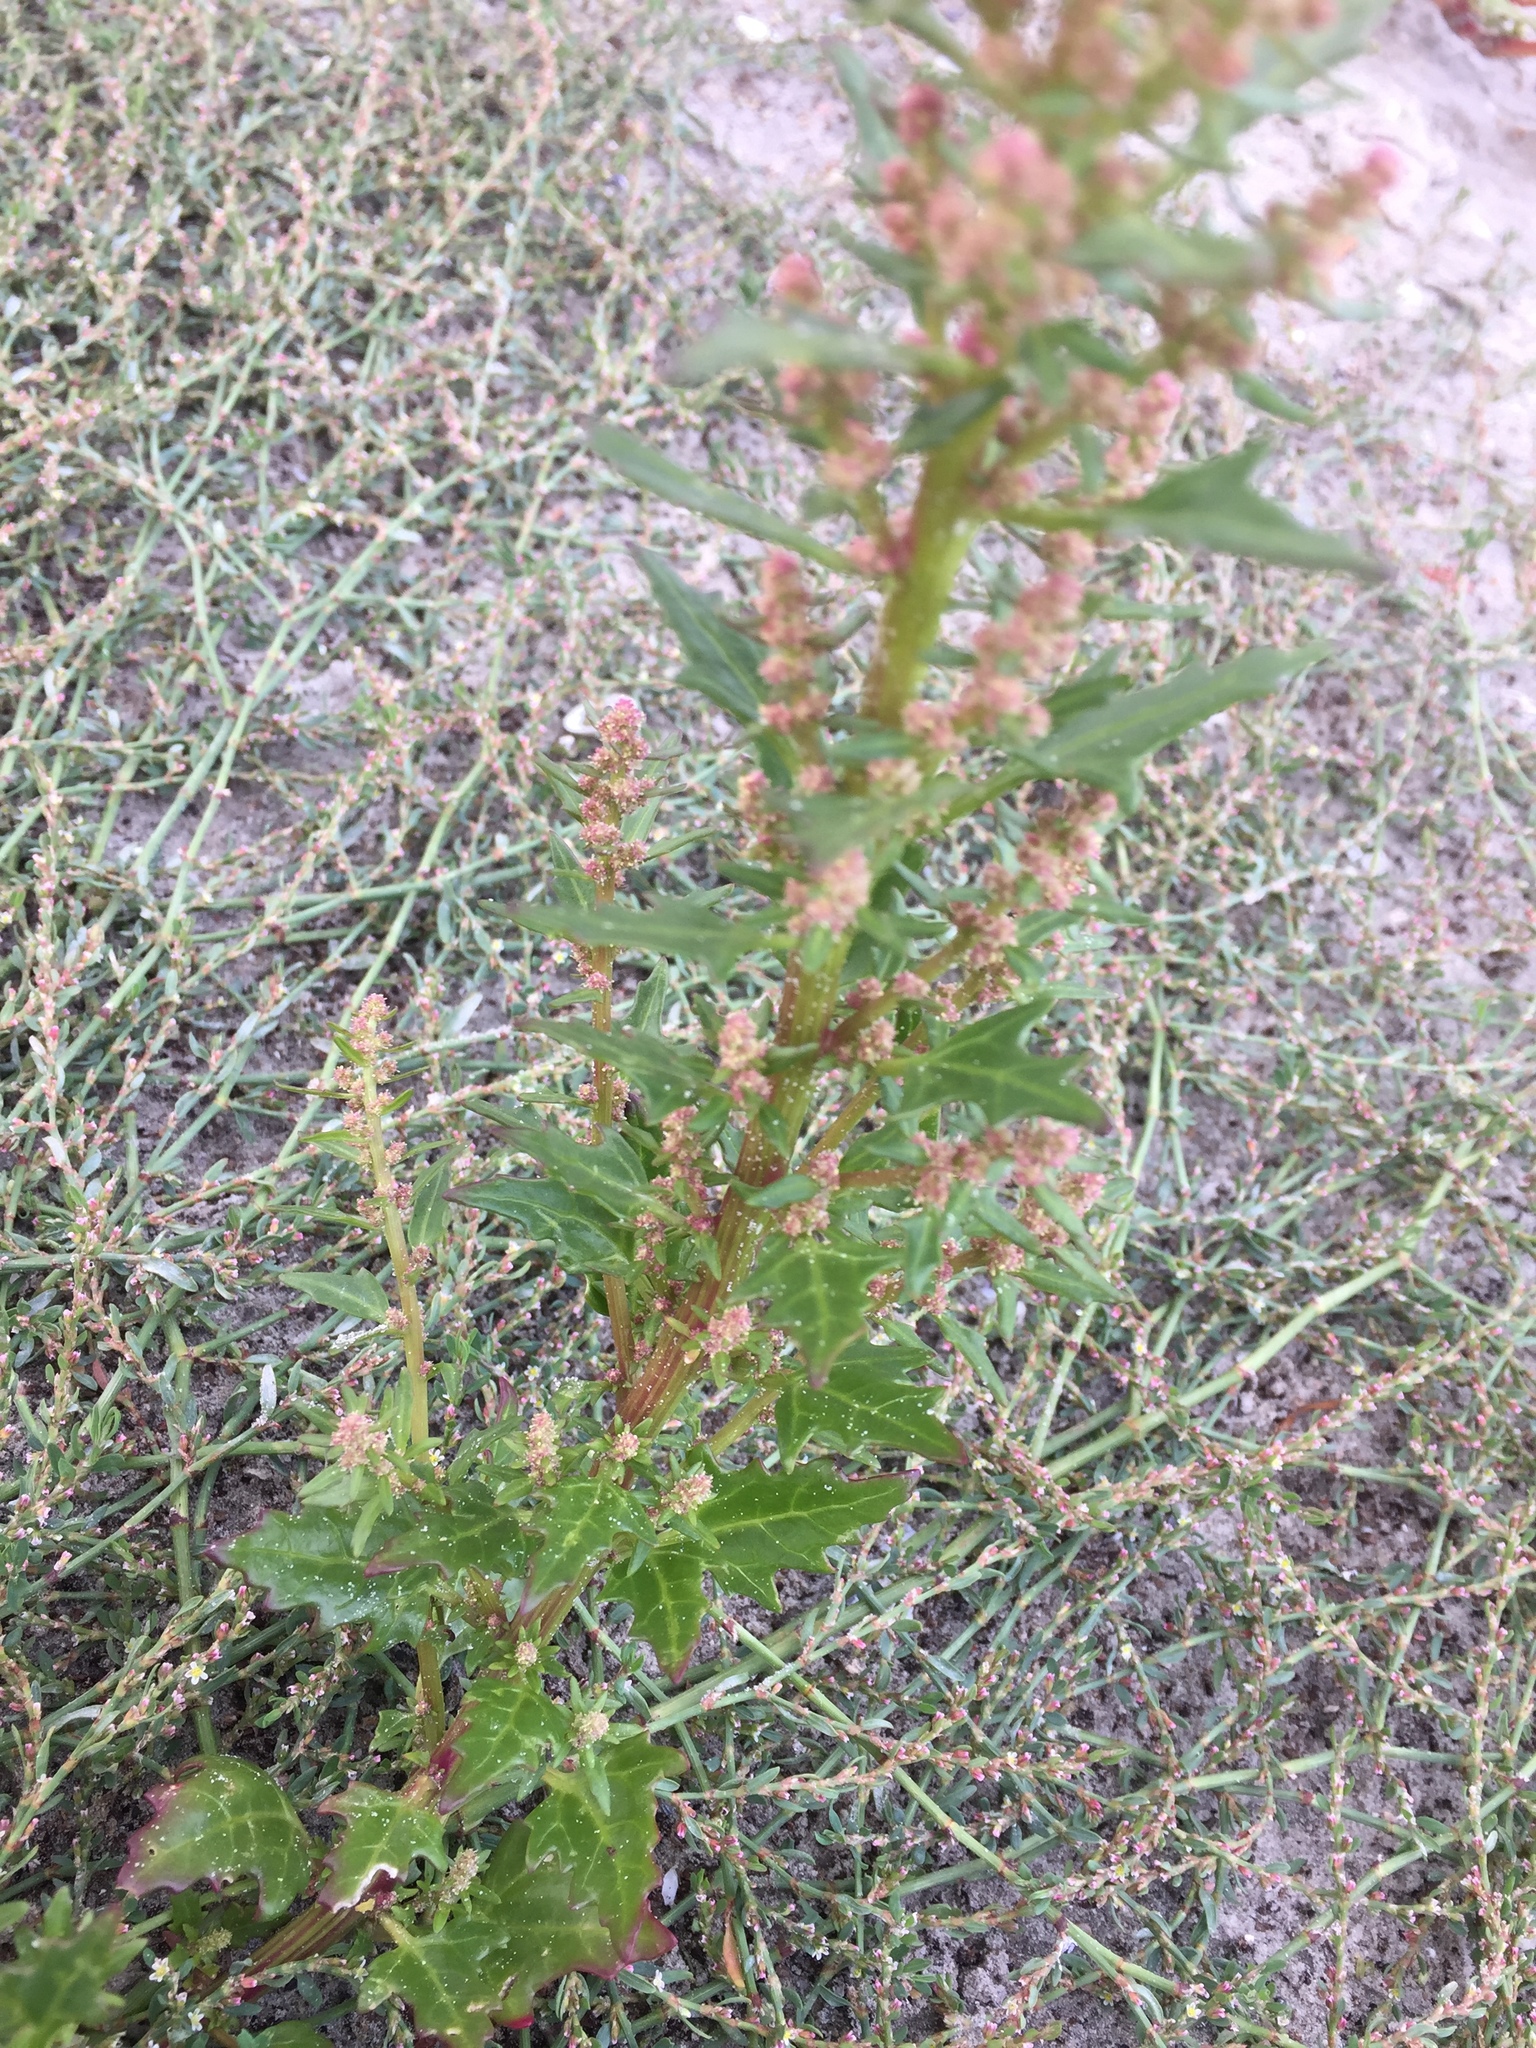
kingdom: Plantae
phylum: Tracheophyta
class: Magnoliopsida
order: Caryophyllales
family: Amaranthaceae
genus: Oxybasis
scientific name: Oxybasis rubra
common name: Red goosefoot
